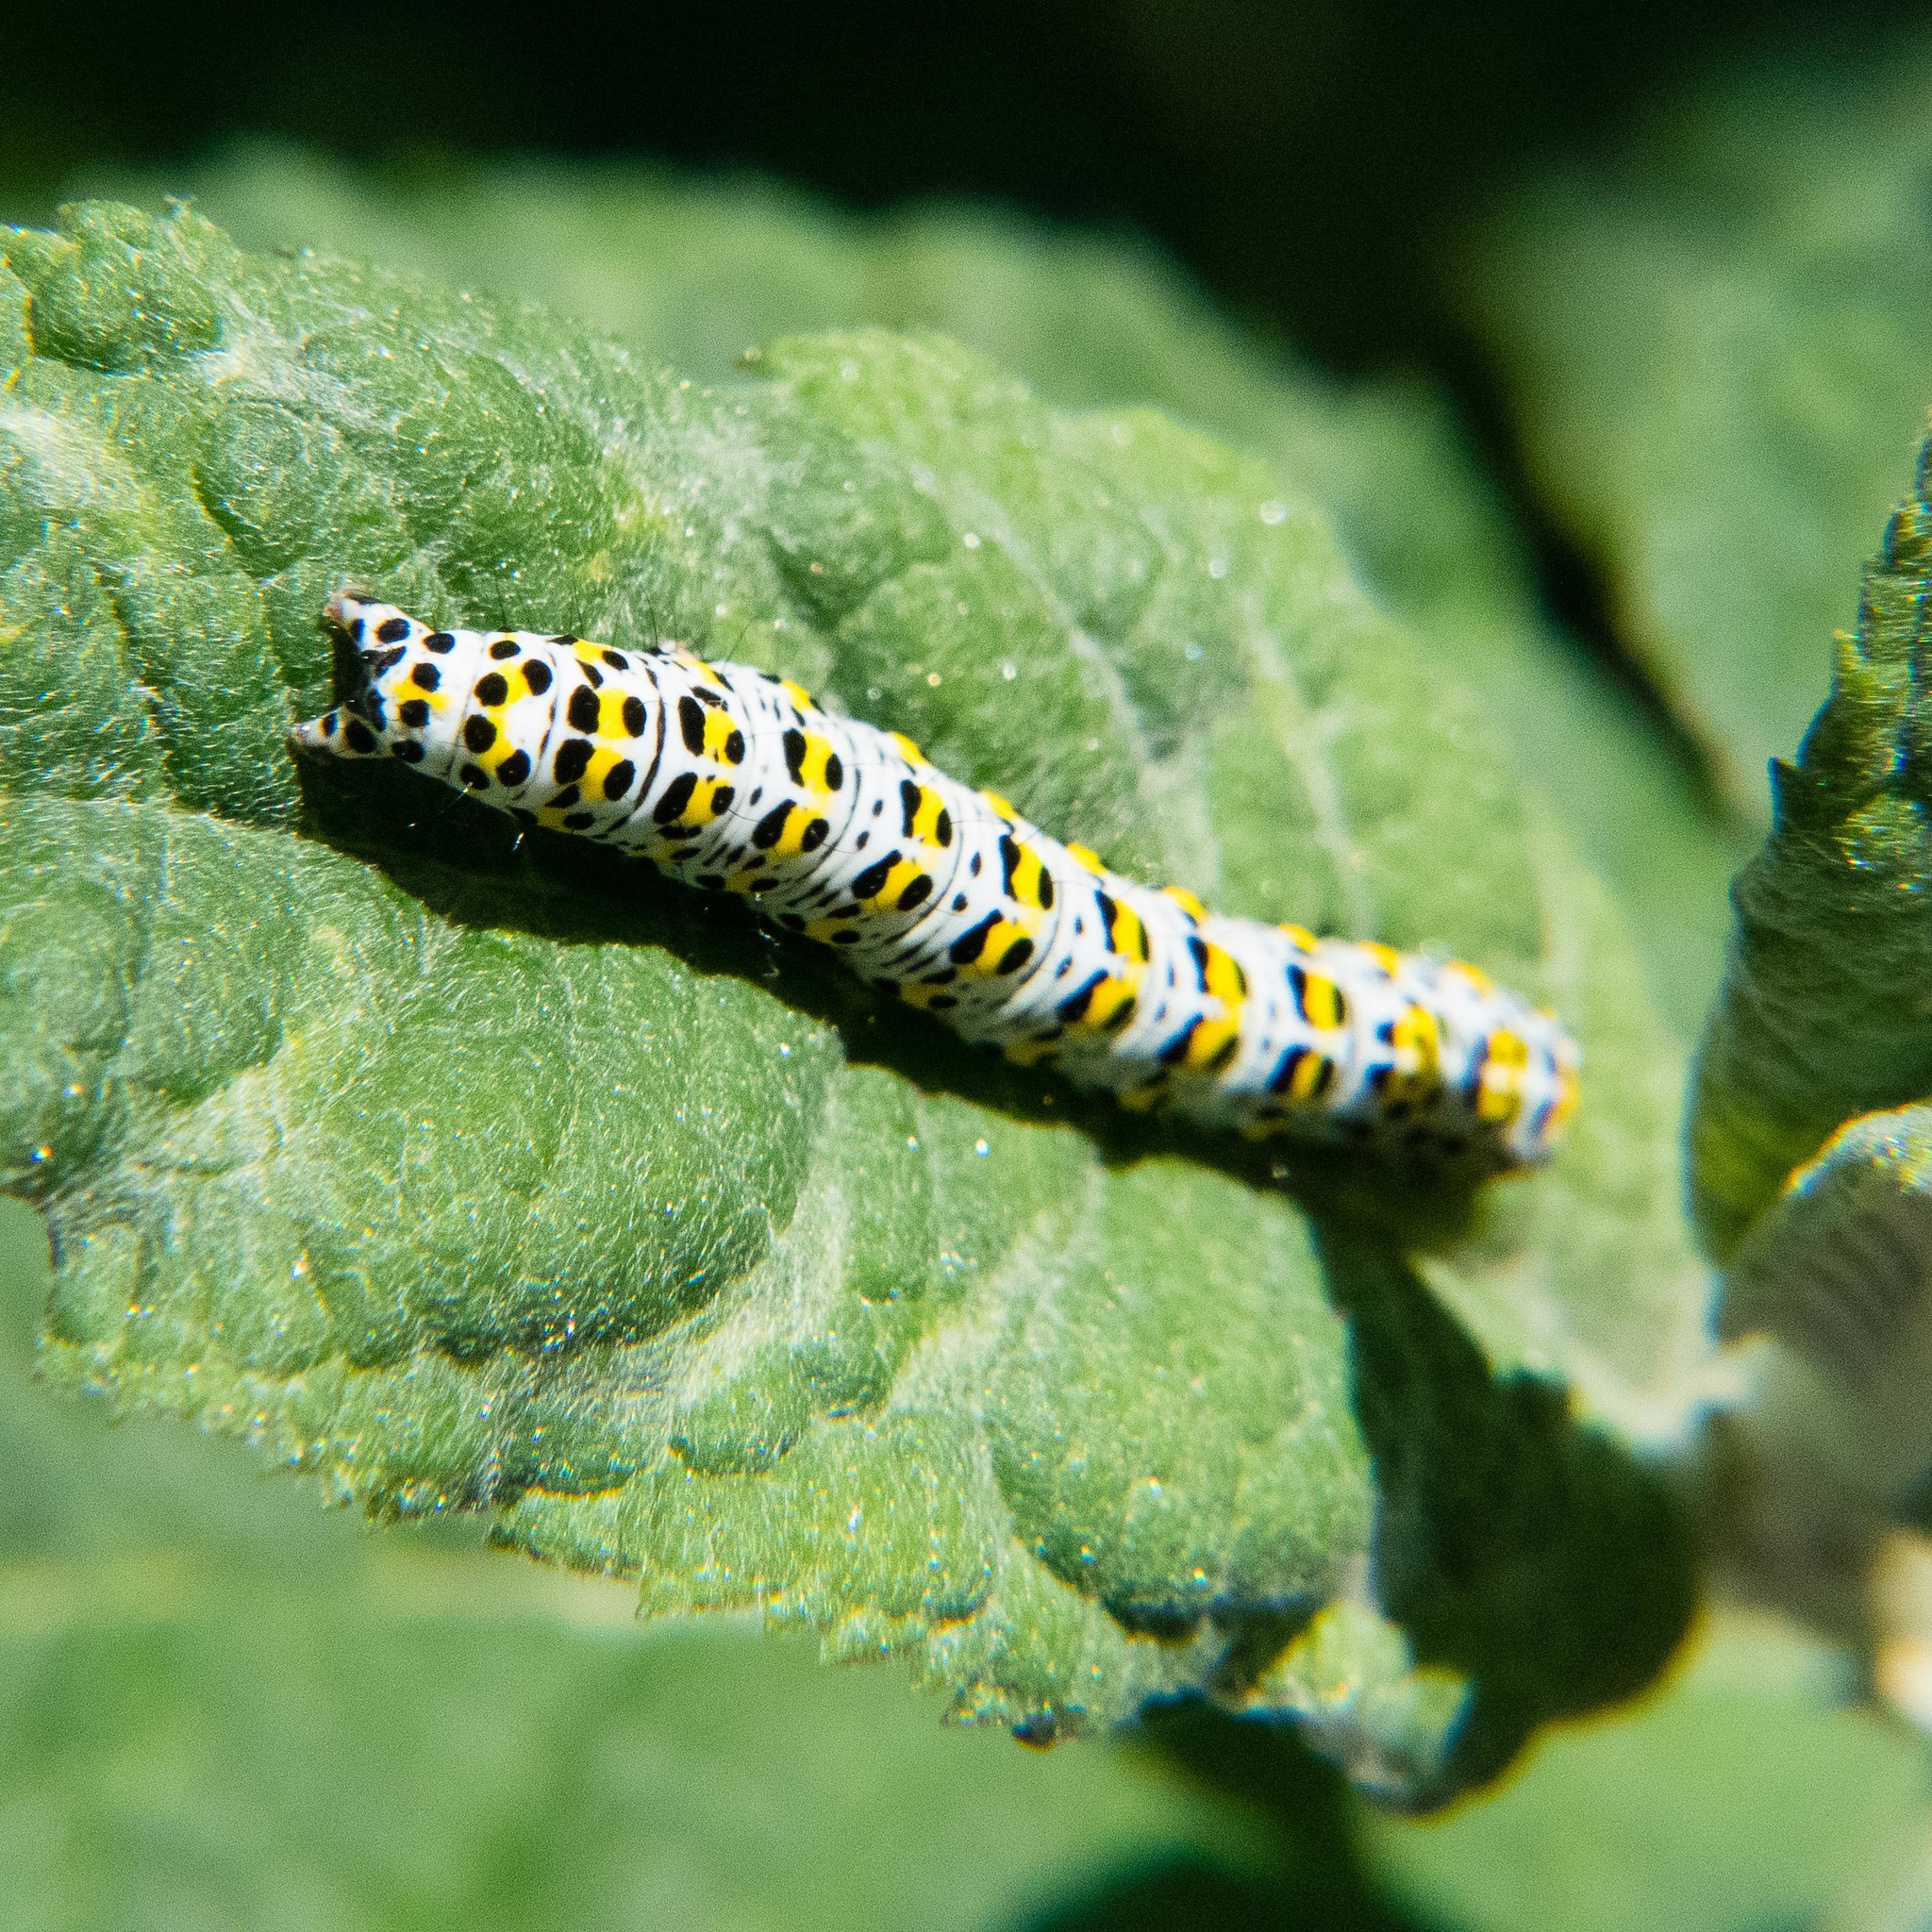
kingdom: Animalia
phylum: Arthropoda
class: Insecta
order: Lepidoptera
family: Noctuidae
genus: Cucullia
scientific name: Cucullia verbasci
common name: Mullein
